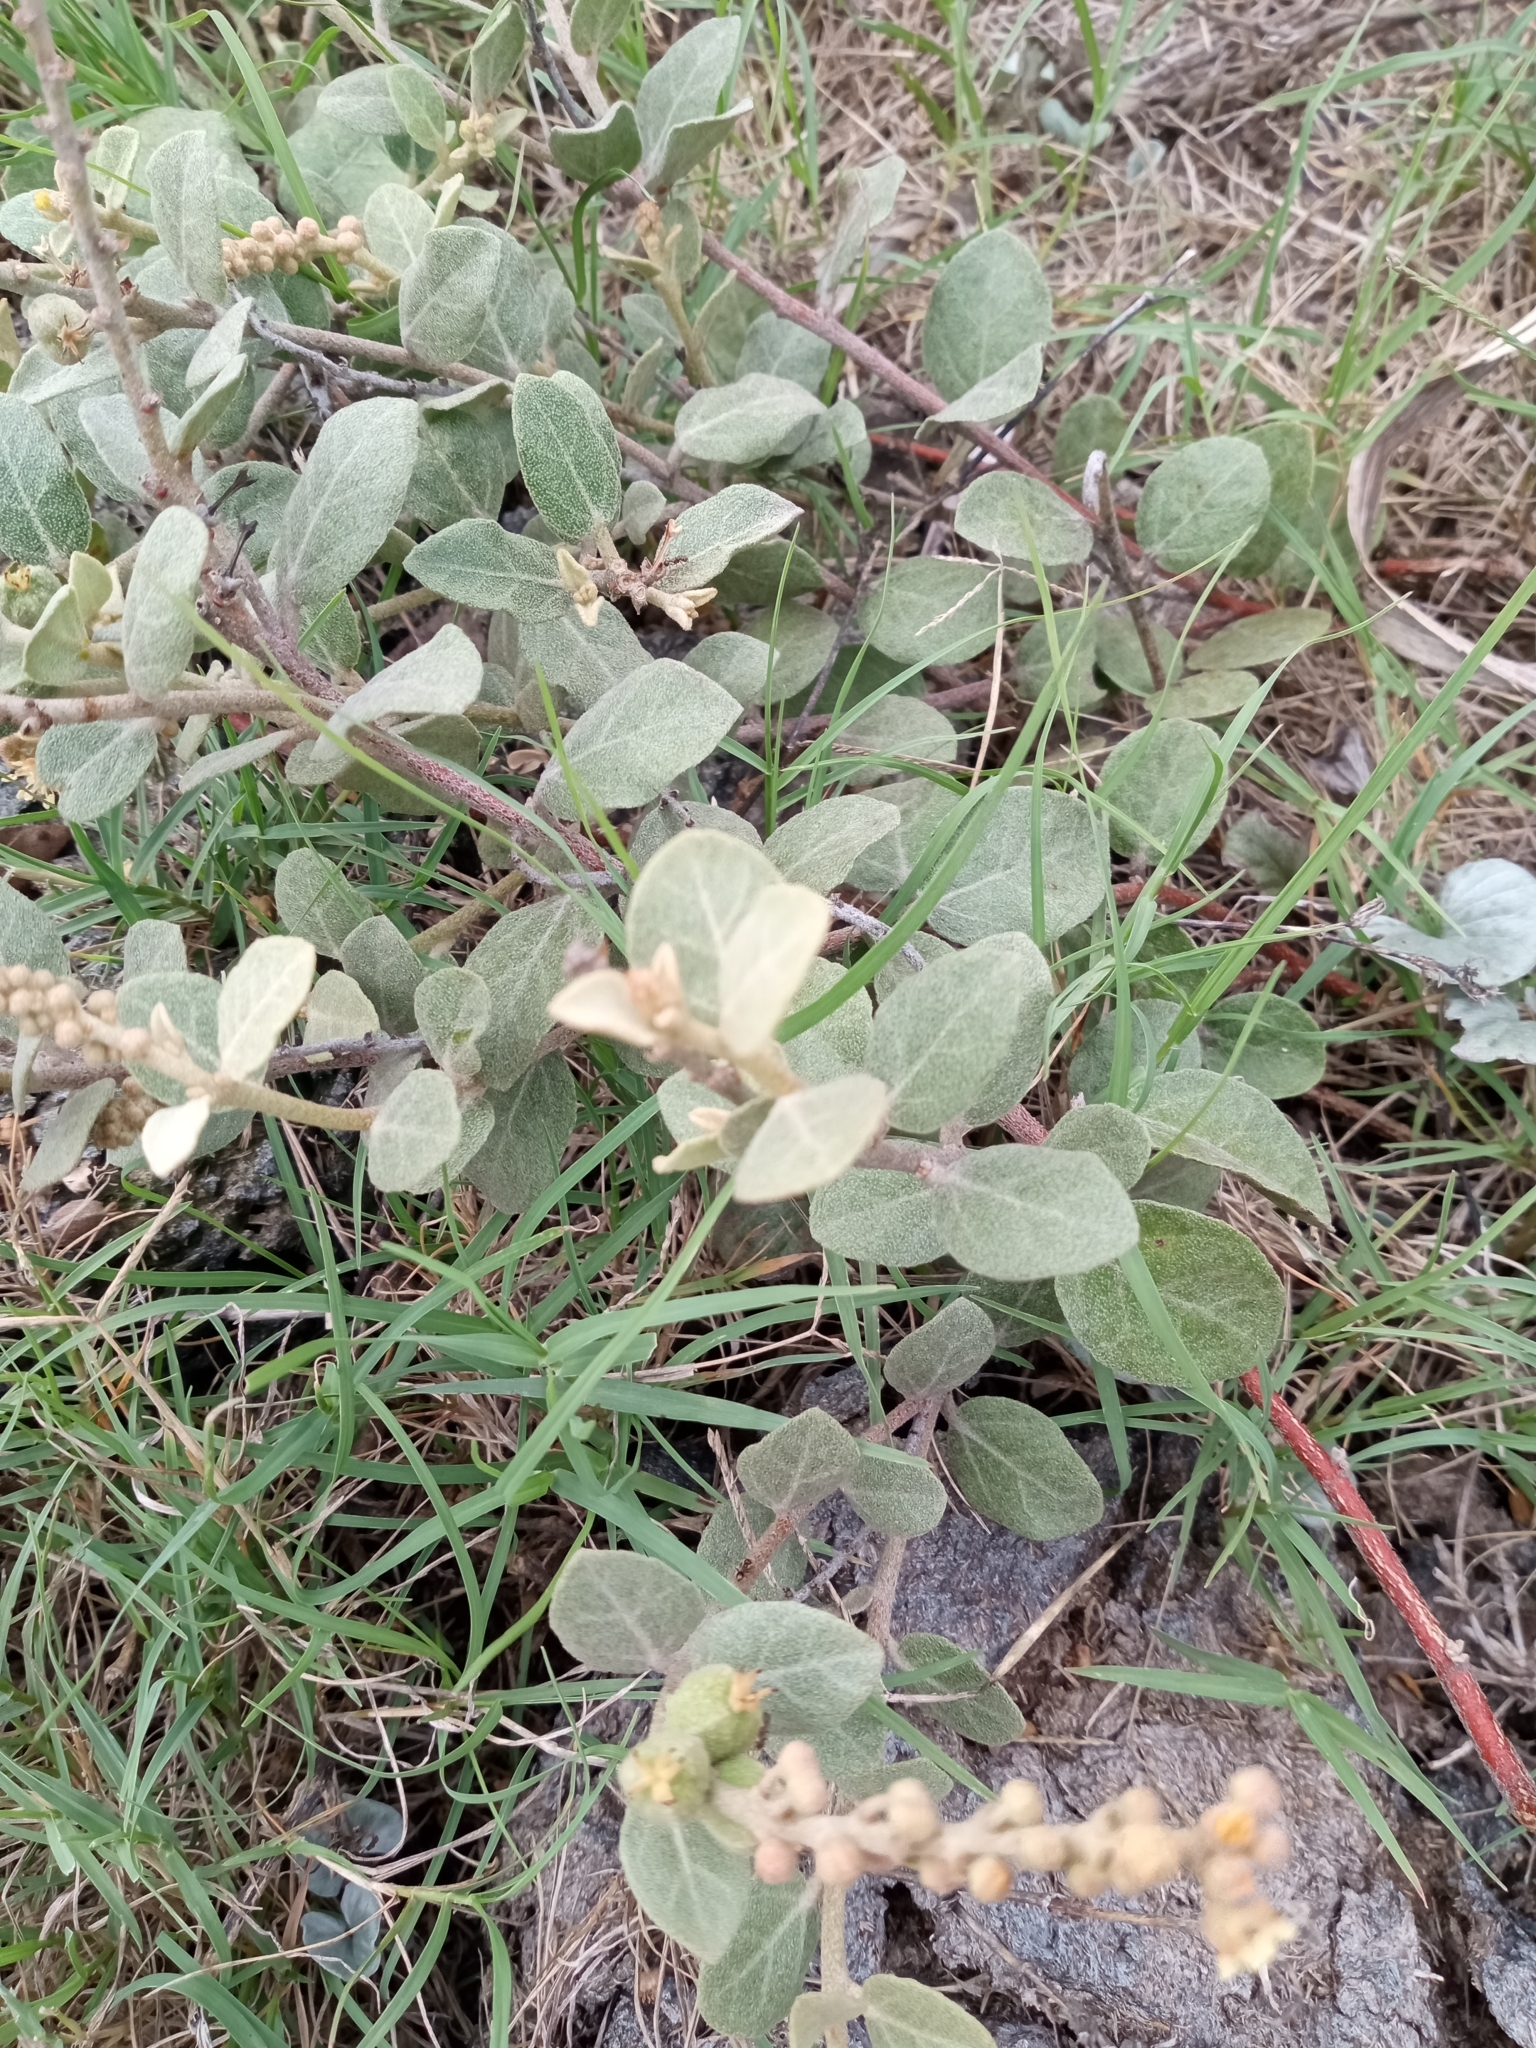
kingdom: Plantae
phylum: Tracheophyta
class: Magnoliopsida
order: Malpighiales
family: Euphorbiaceae
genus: Croton
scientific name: Croton lanatus
